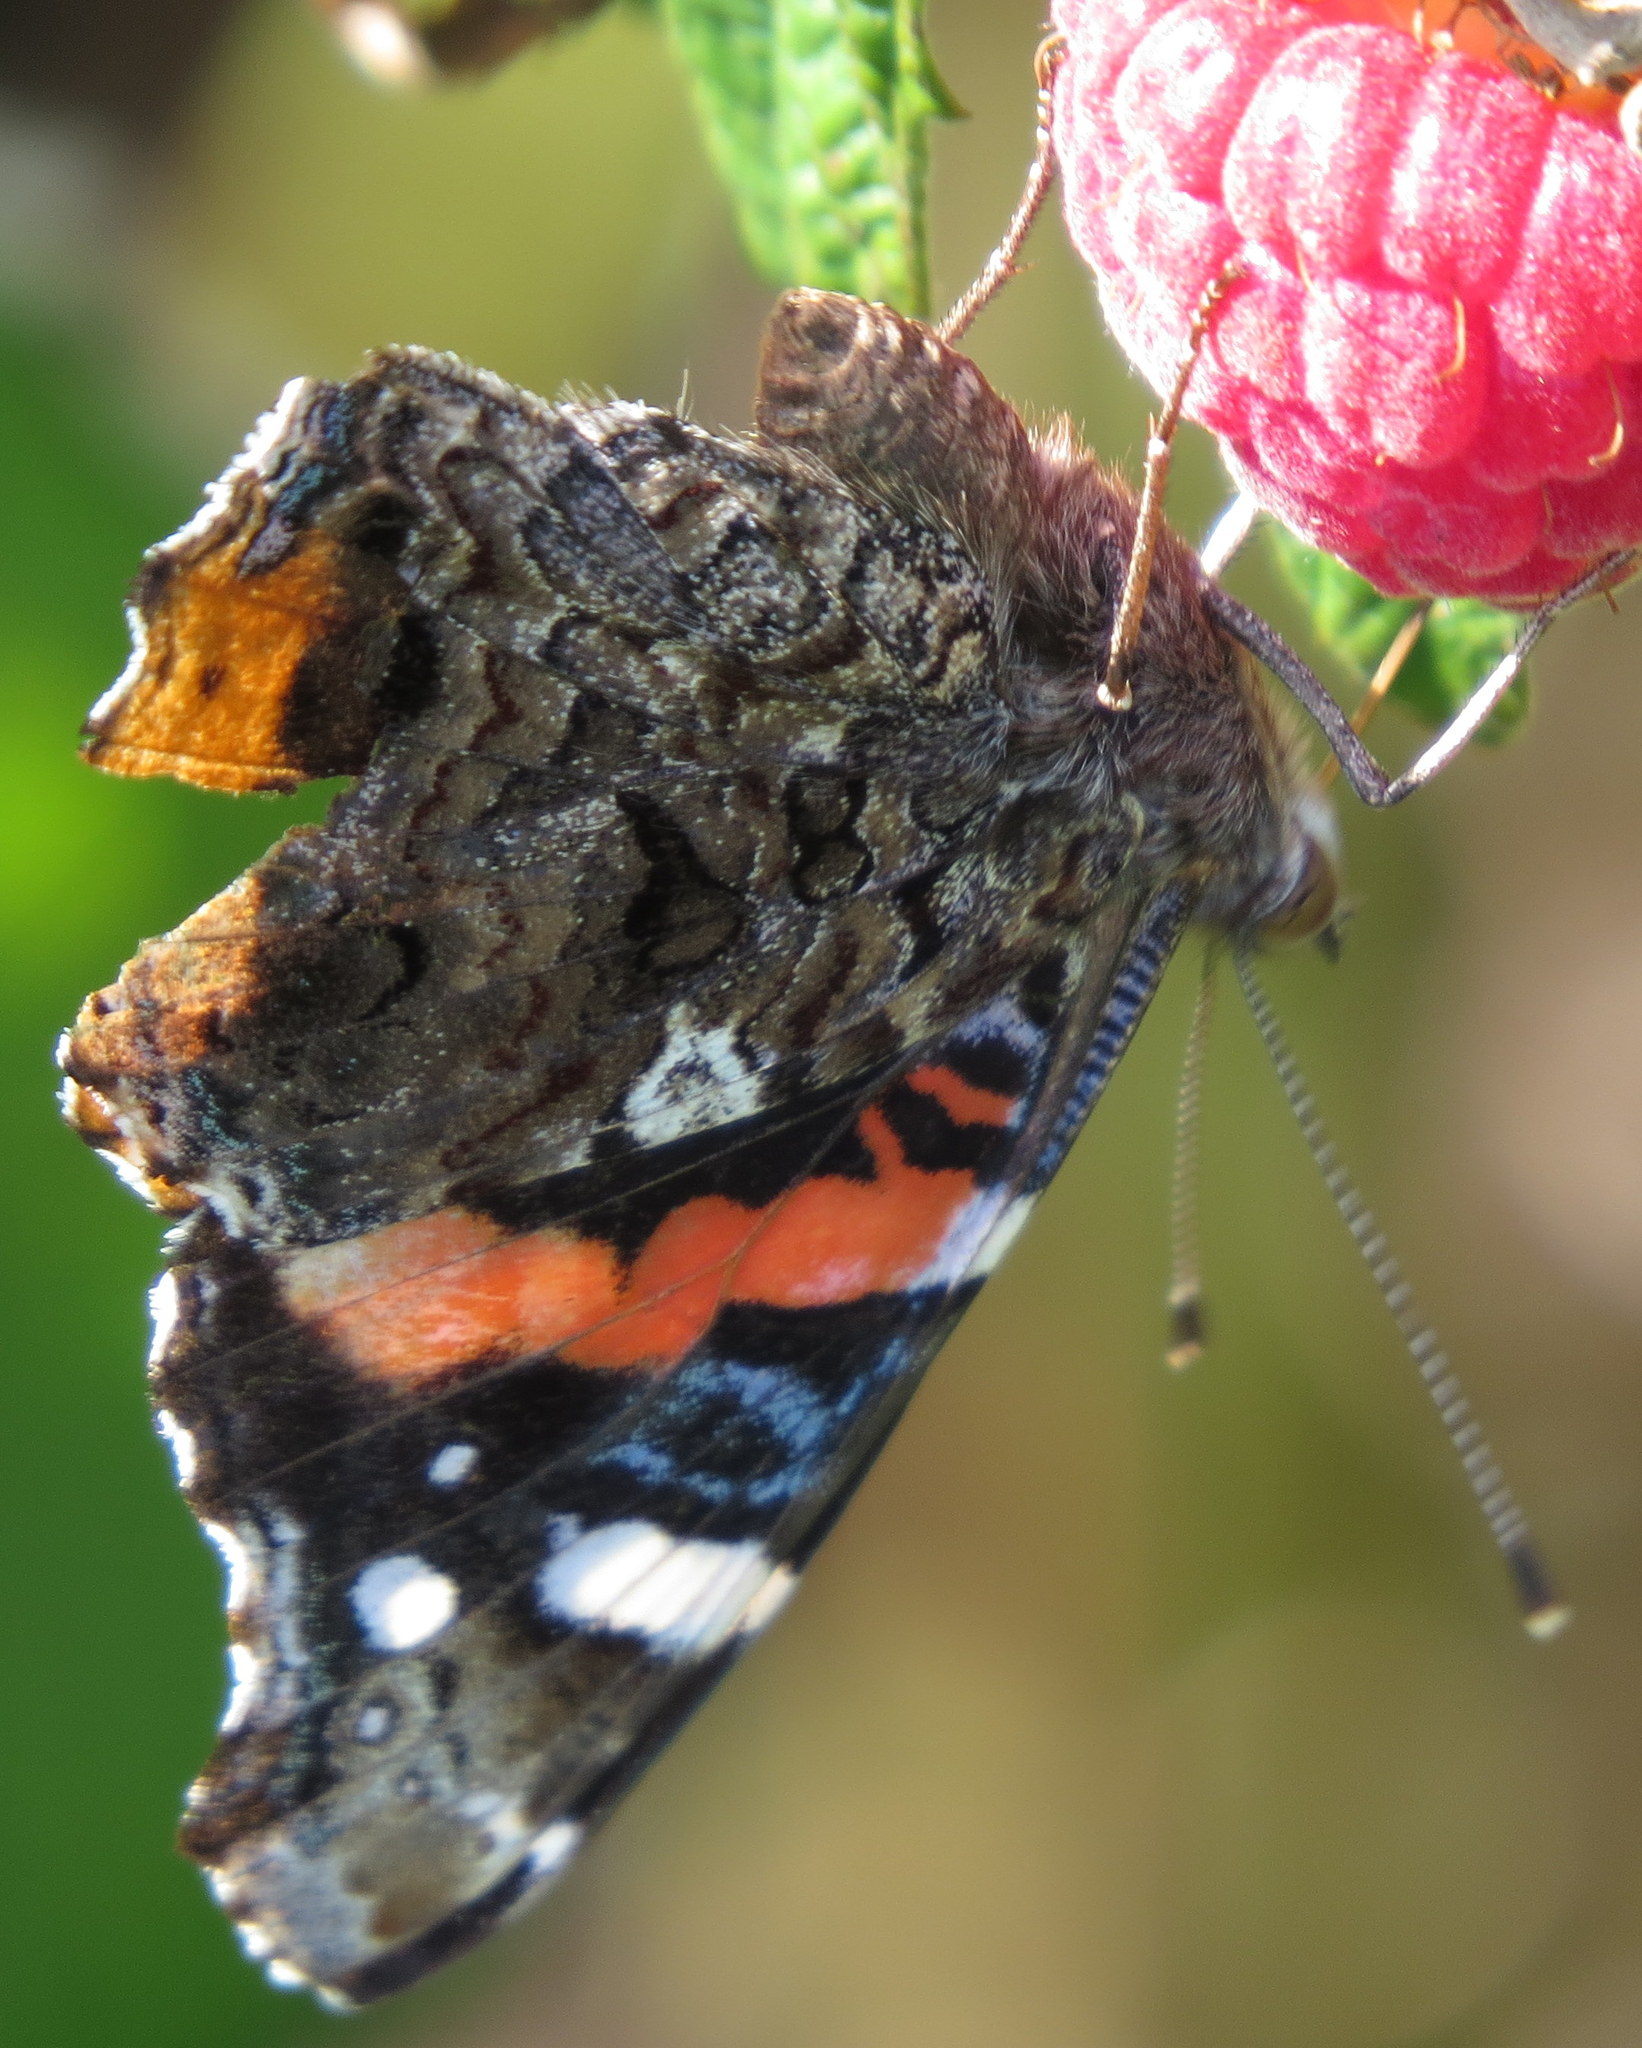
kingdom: Animalia
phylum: Arthropoda
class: Insecta
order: Lepidoptera
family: Nymphalidae
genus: Vanessa
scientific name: Vanessa atalanta
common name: Red admiral
